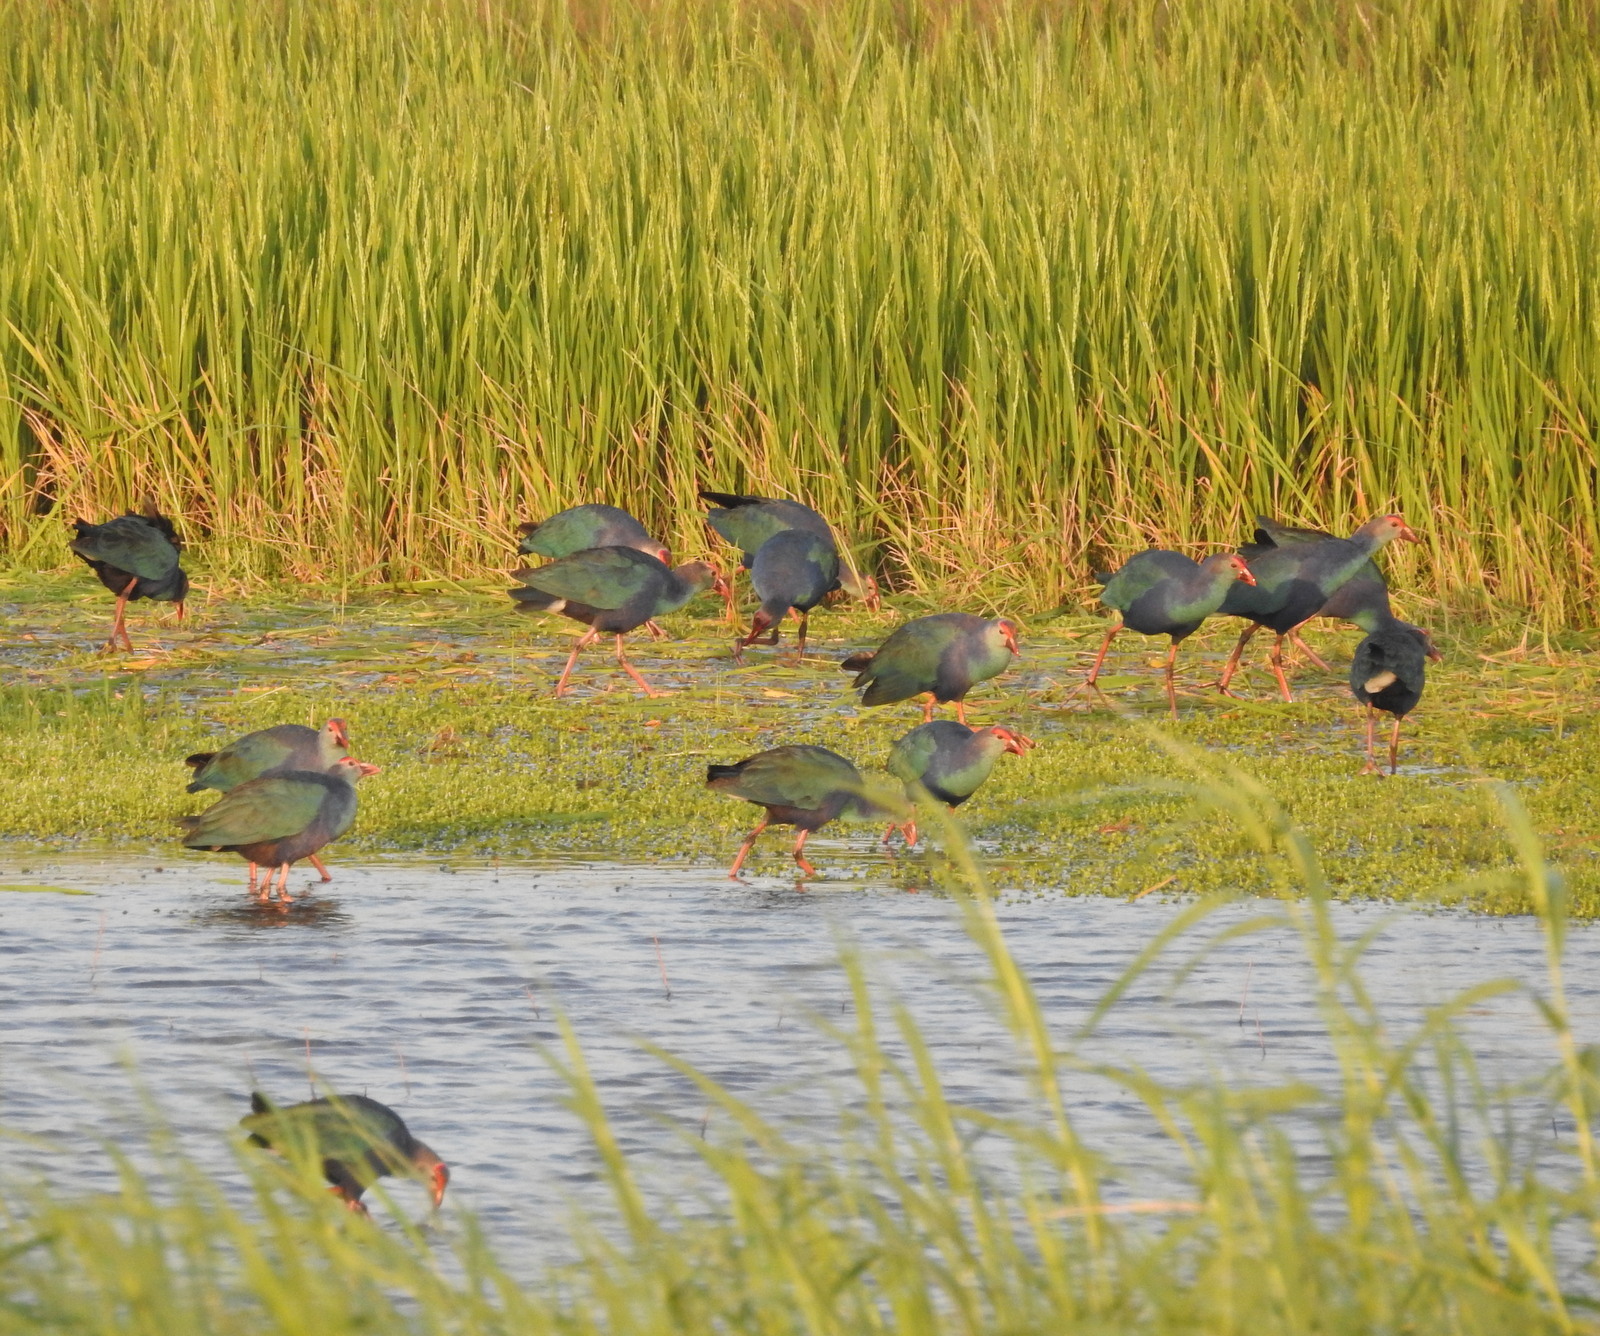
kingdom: Animalia
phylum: Chordata
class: Aves
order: Gruiformes
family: Rallidae
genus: Porphyrio
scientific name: Porphyrio porphyrio
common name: Purple swamphen
